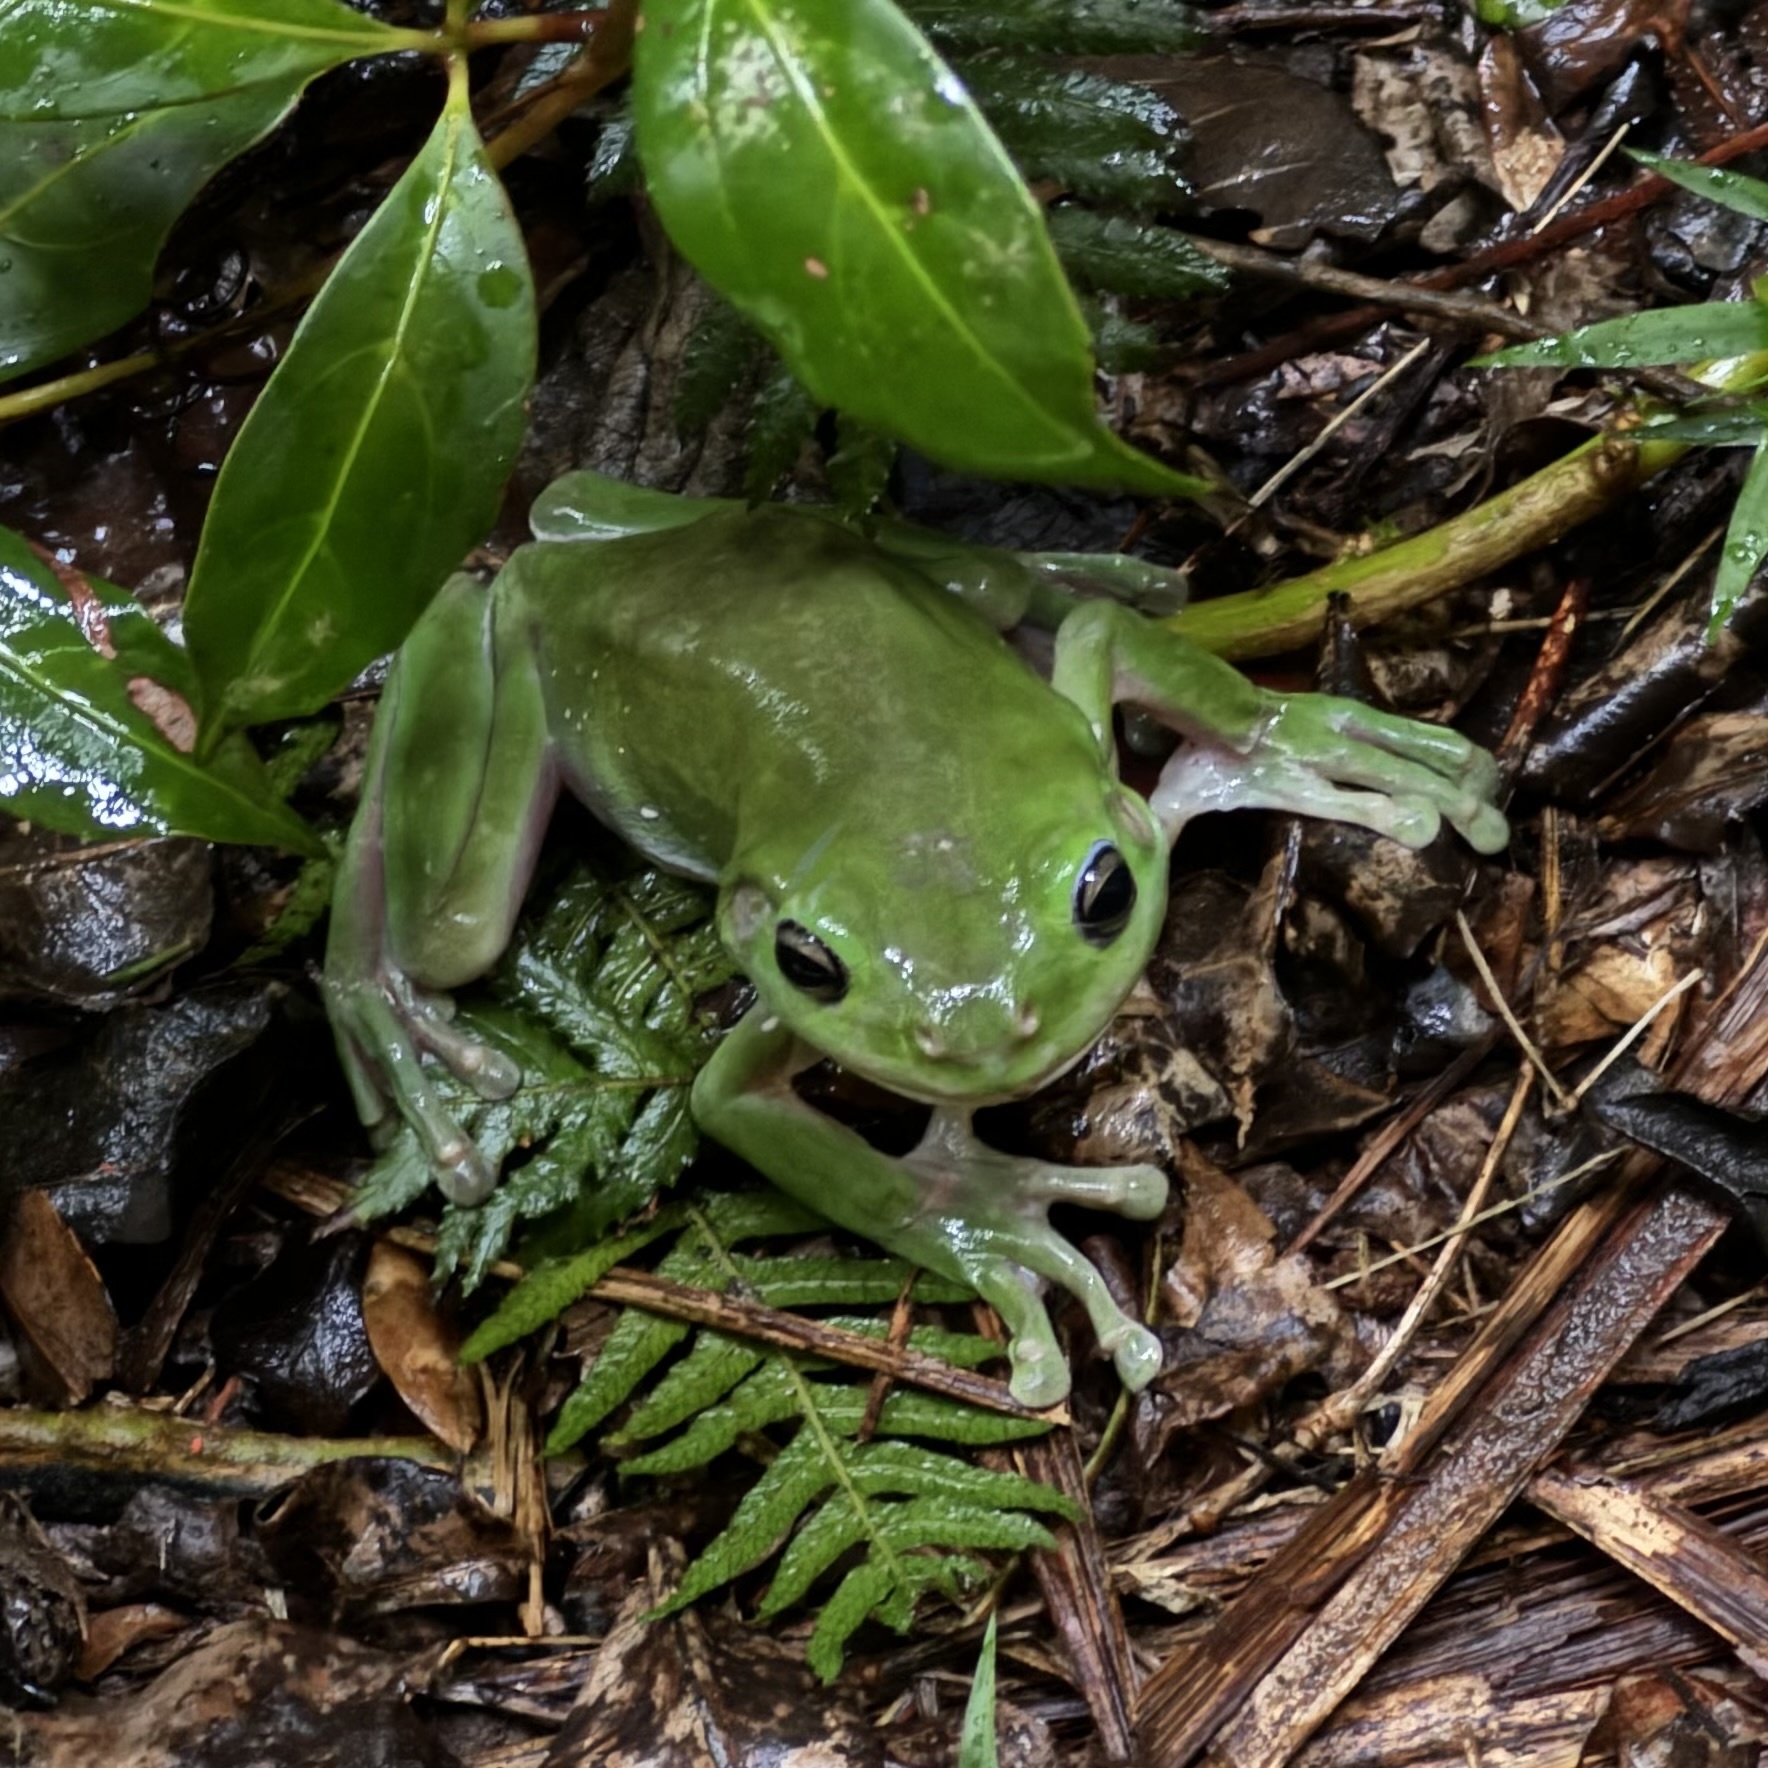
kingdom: Animalia
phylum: Chordata
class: Amphibia
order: Anura
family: Pelodryadidae
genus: Ranoidea
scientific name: Ranoidea caerulea
